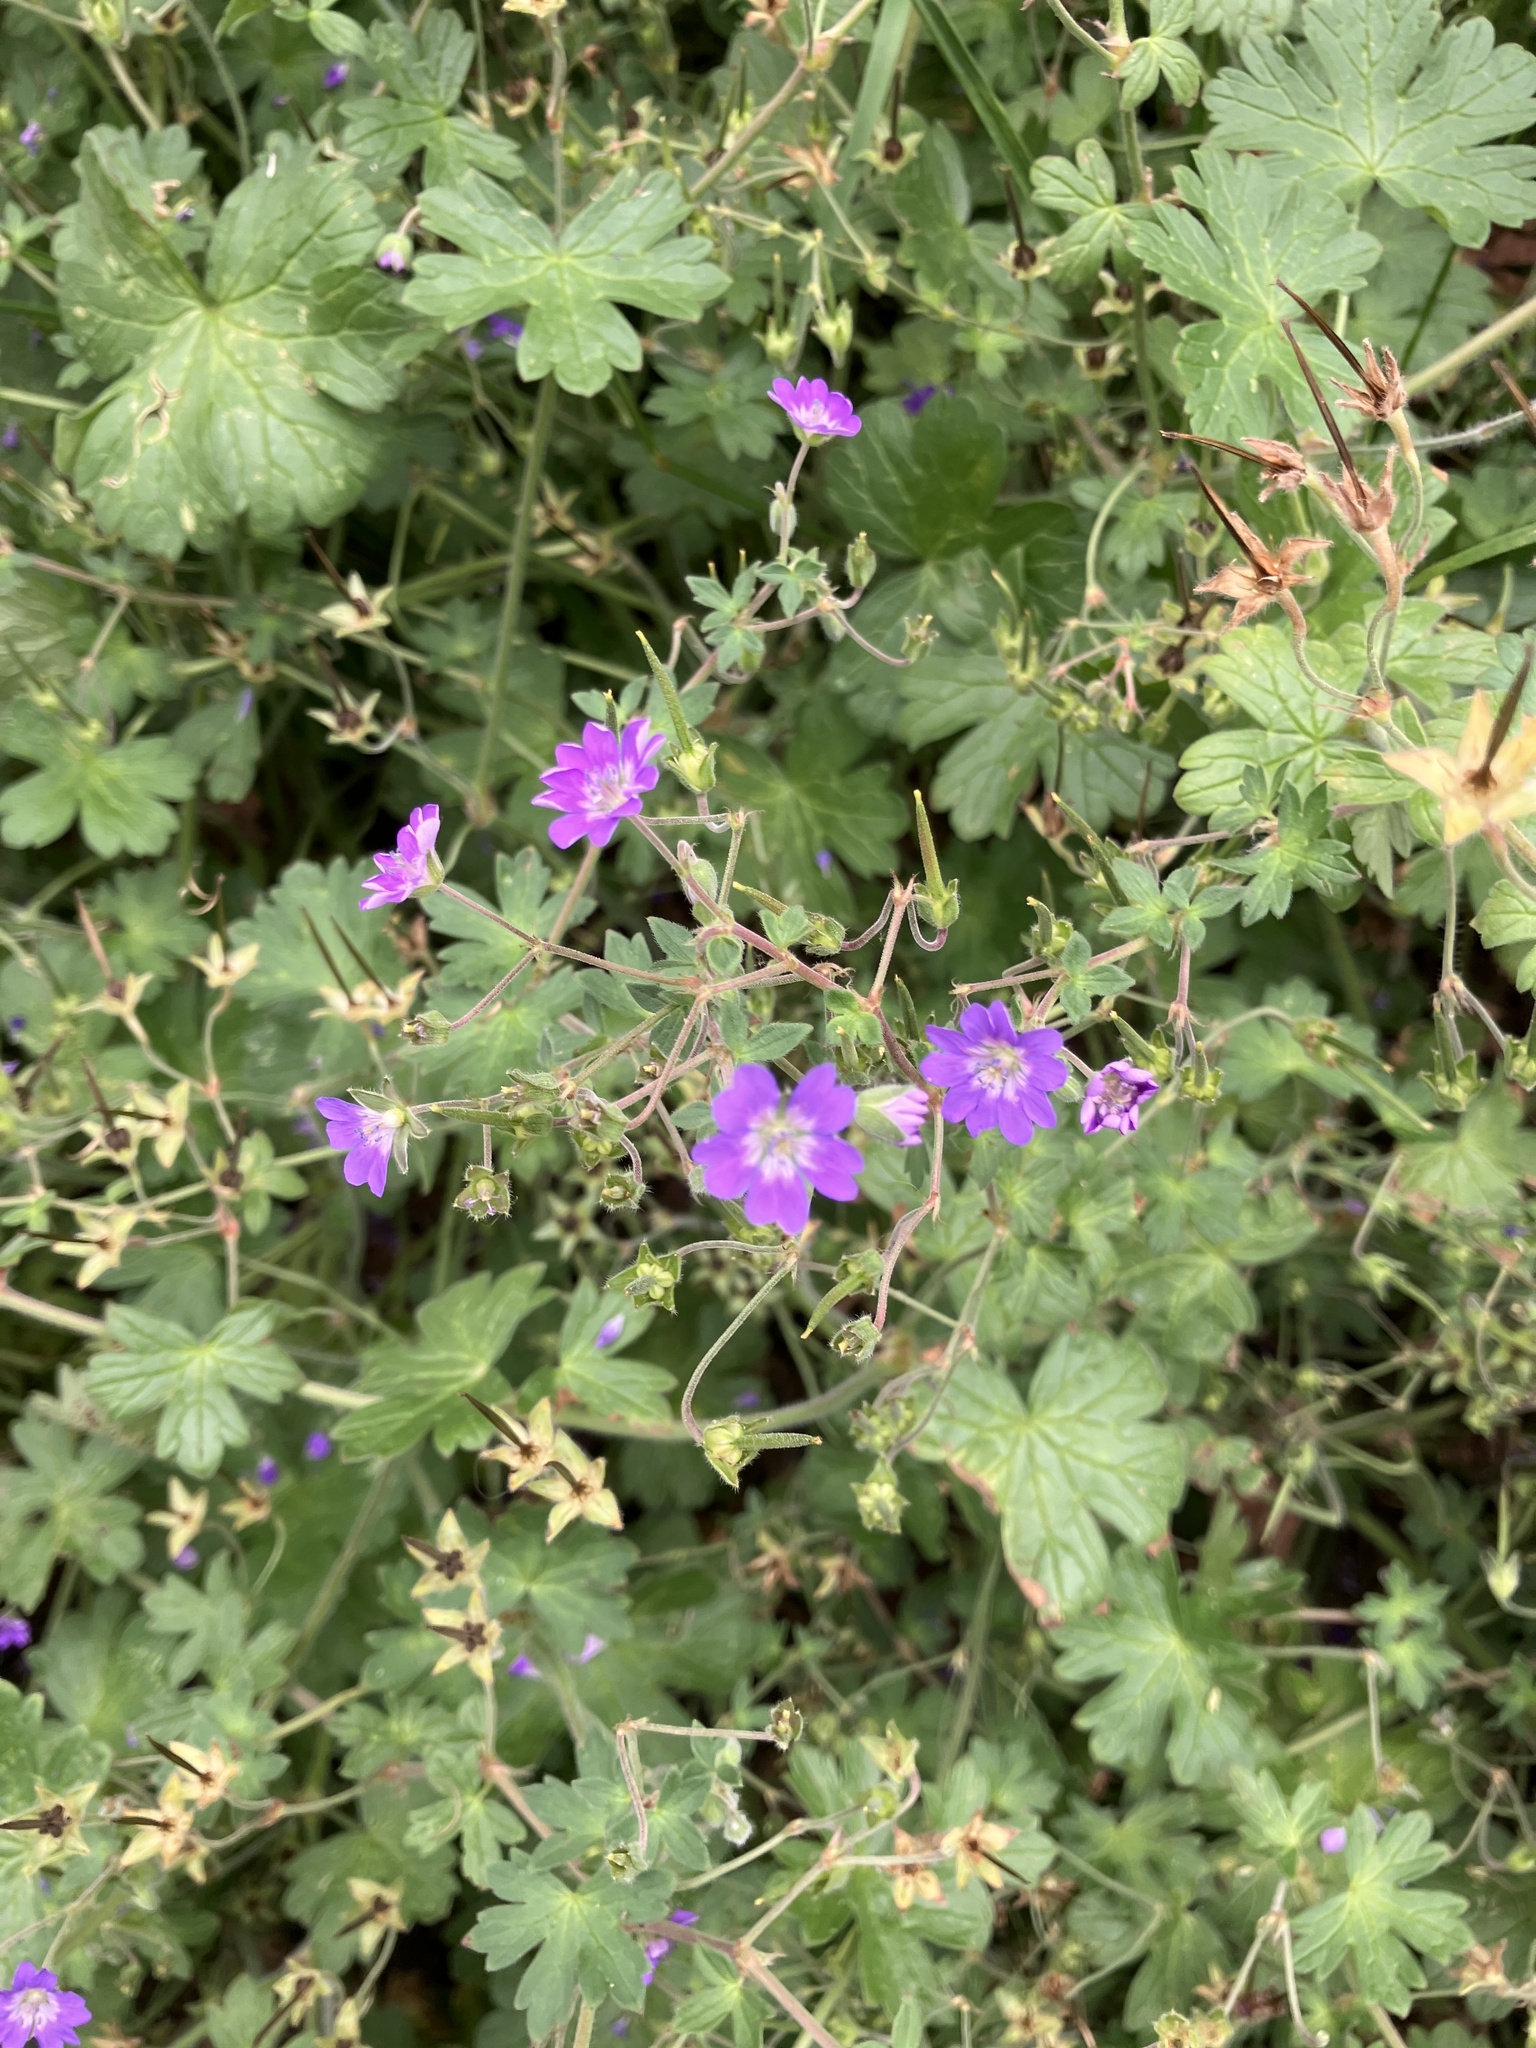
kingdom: Plantae
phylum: Tracheophyta
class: Magnoliopsida
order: Geraniales
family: Geraniaceae
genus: Geranium
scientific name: Geranium pyrenaicum
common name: Hedgerow crane's-bill
